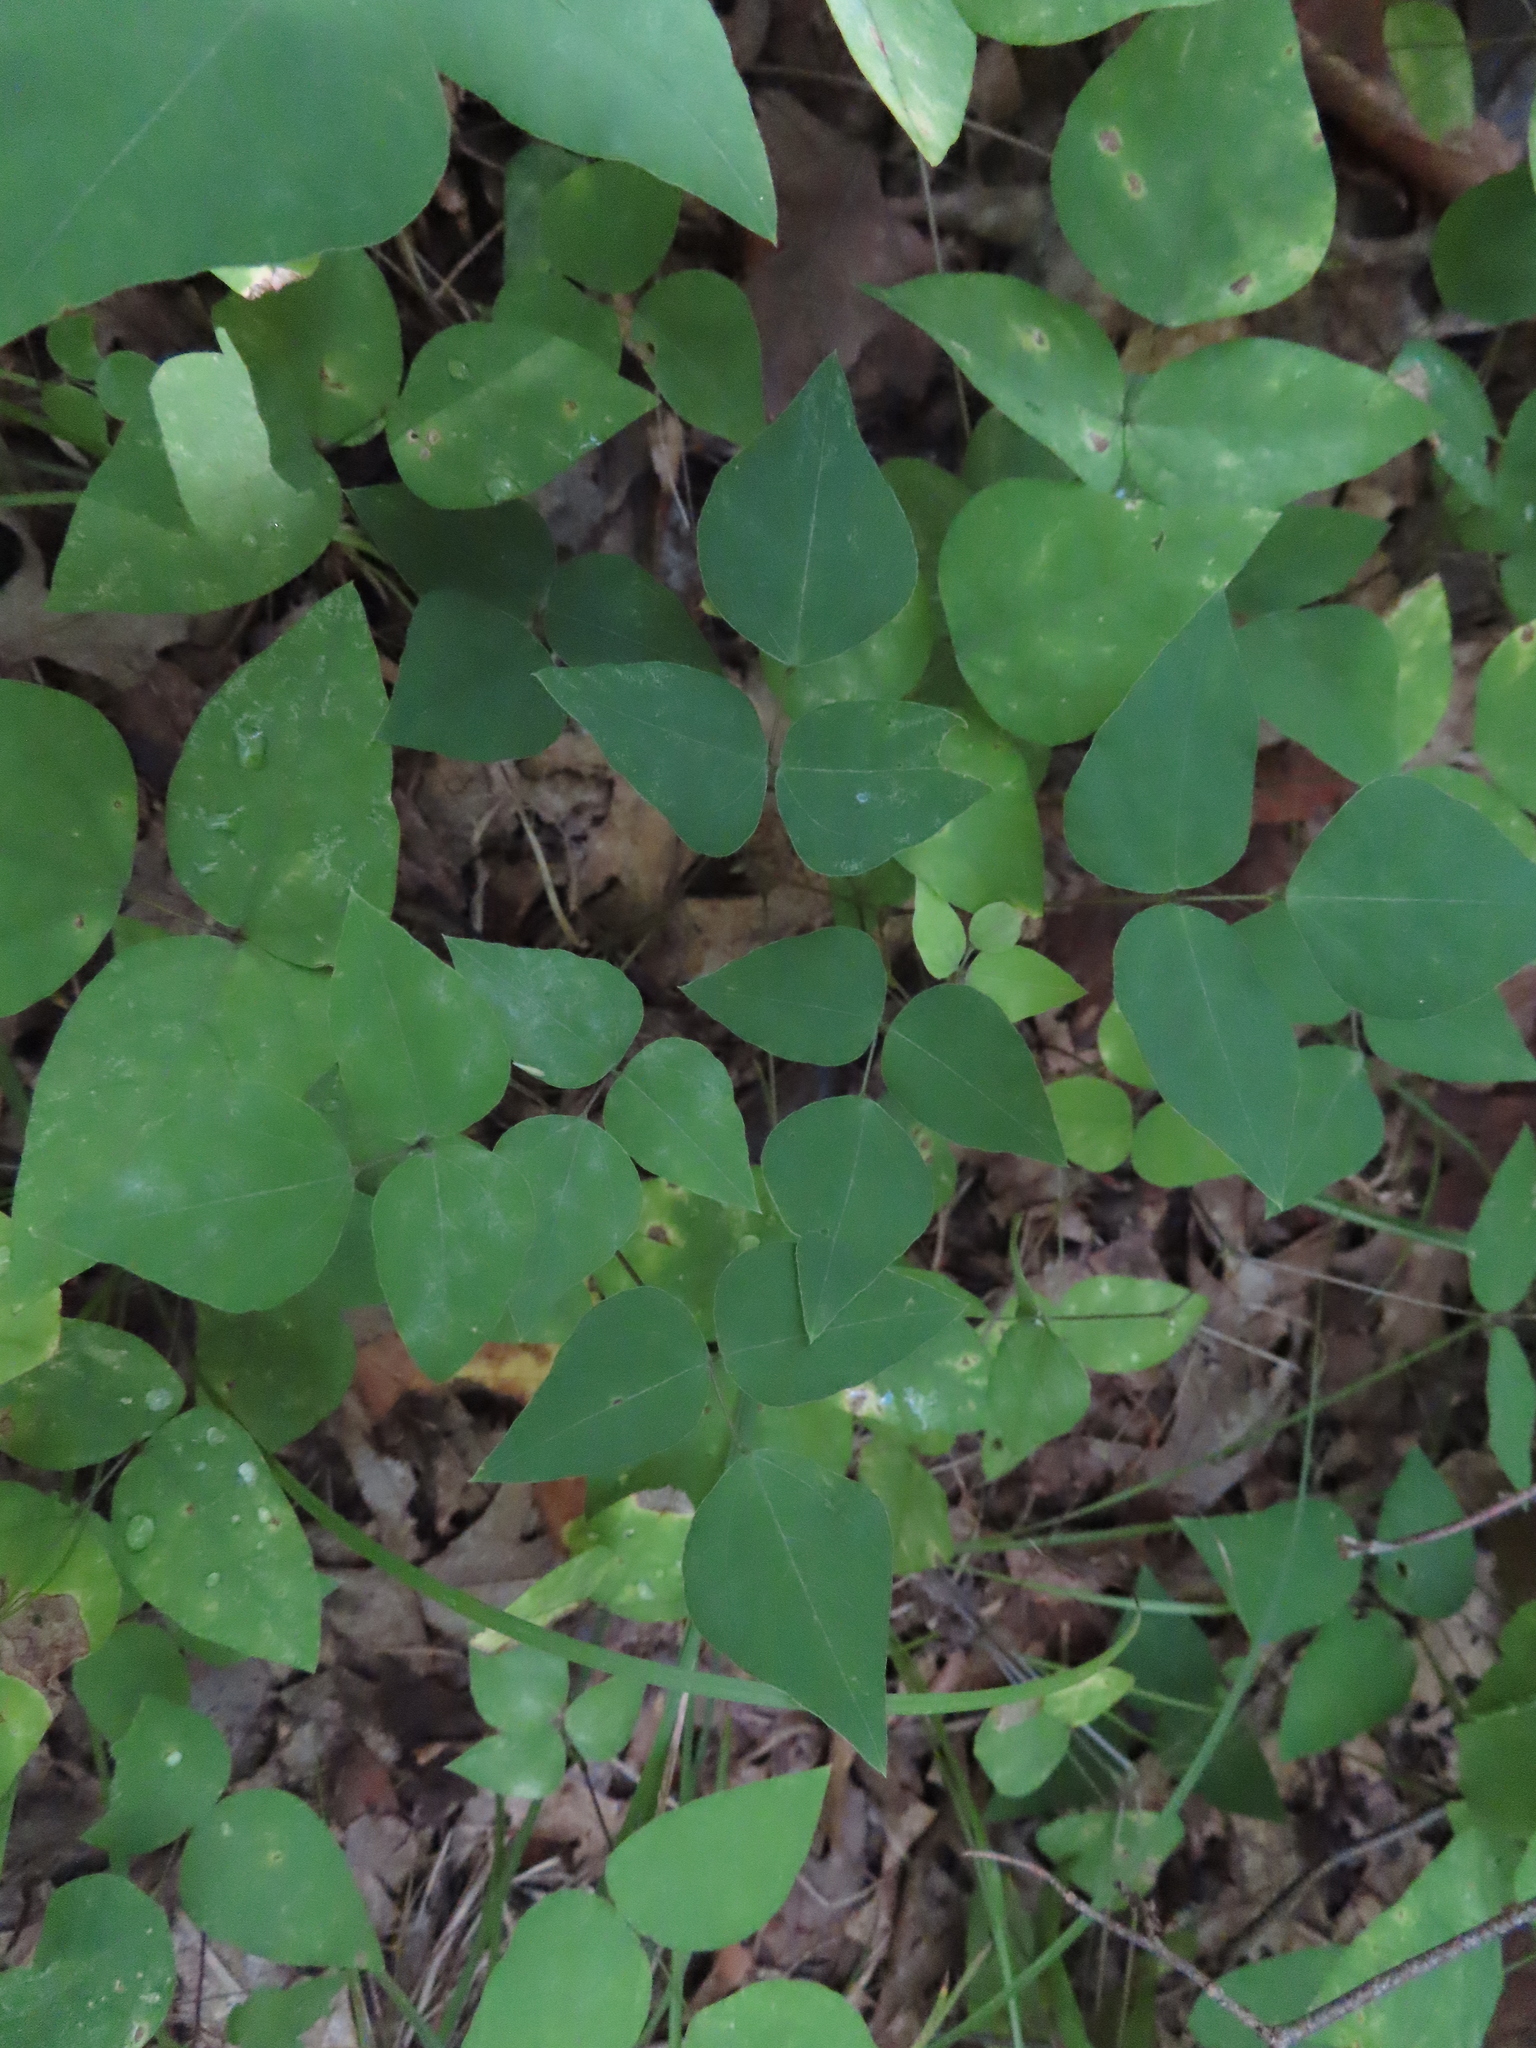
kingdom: Plantae
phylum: Tracheophyta
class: Magnoliopsida
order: Fabales
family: Fabaceae
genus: Amphicarpaea
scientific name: Amphicarpaea bracteata
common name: American hog peanut
